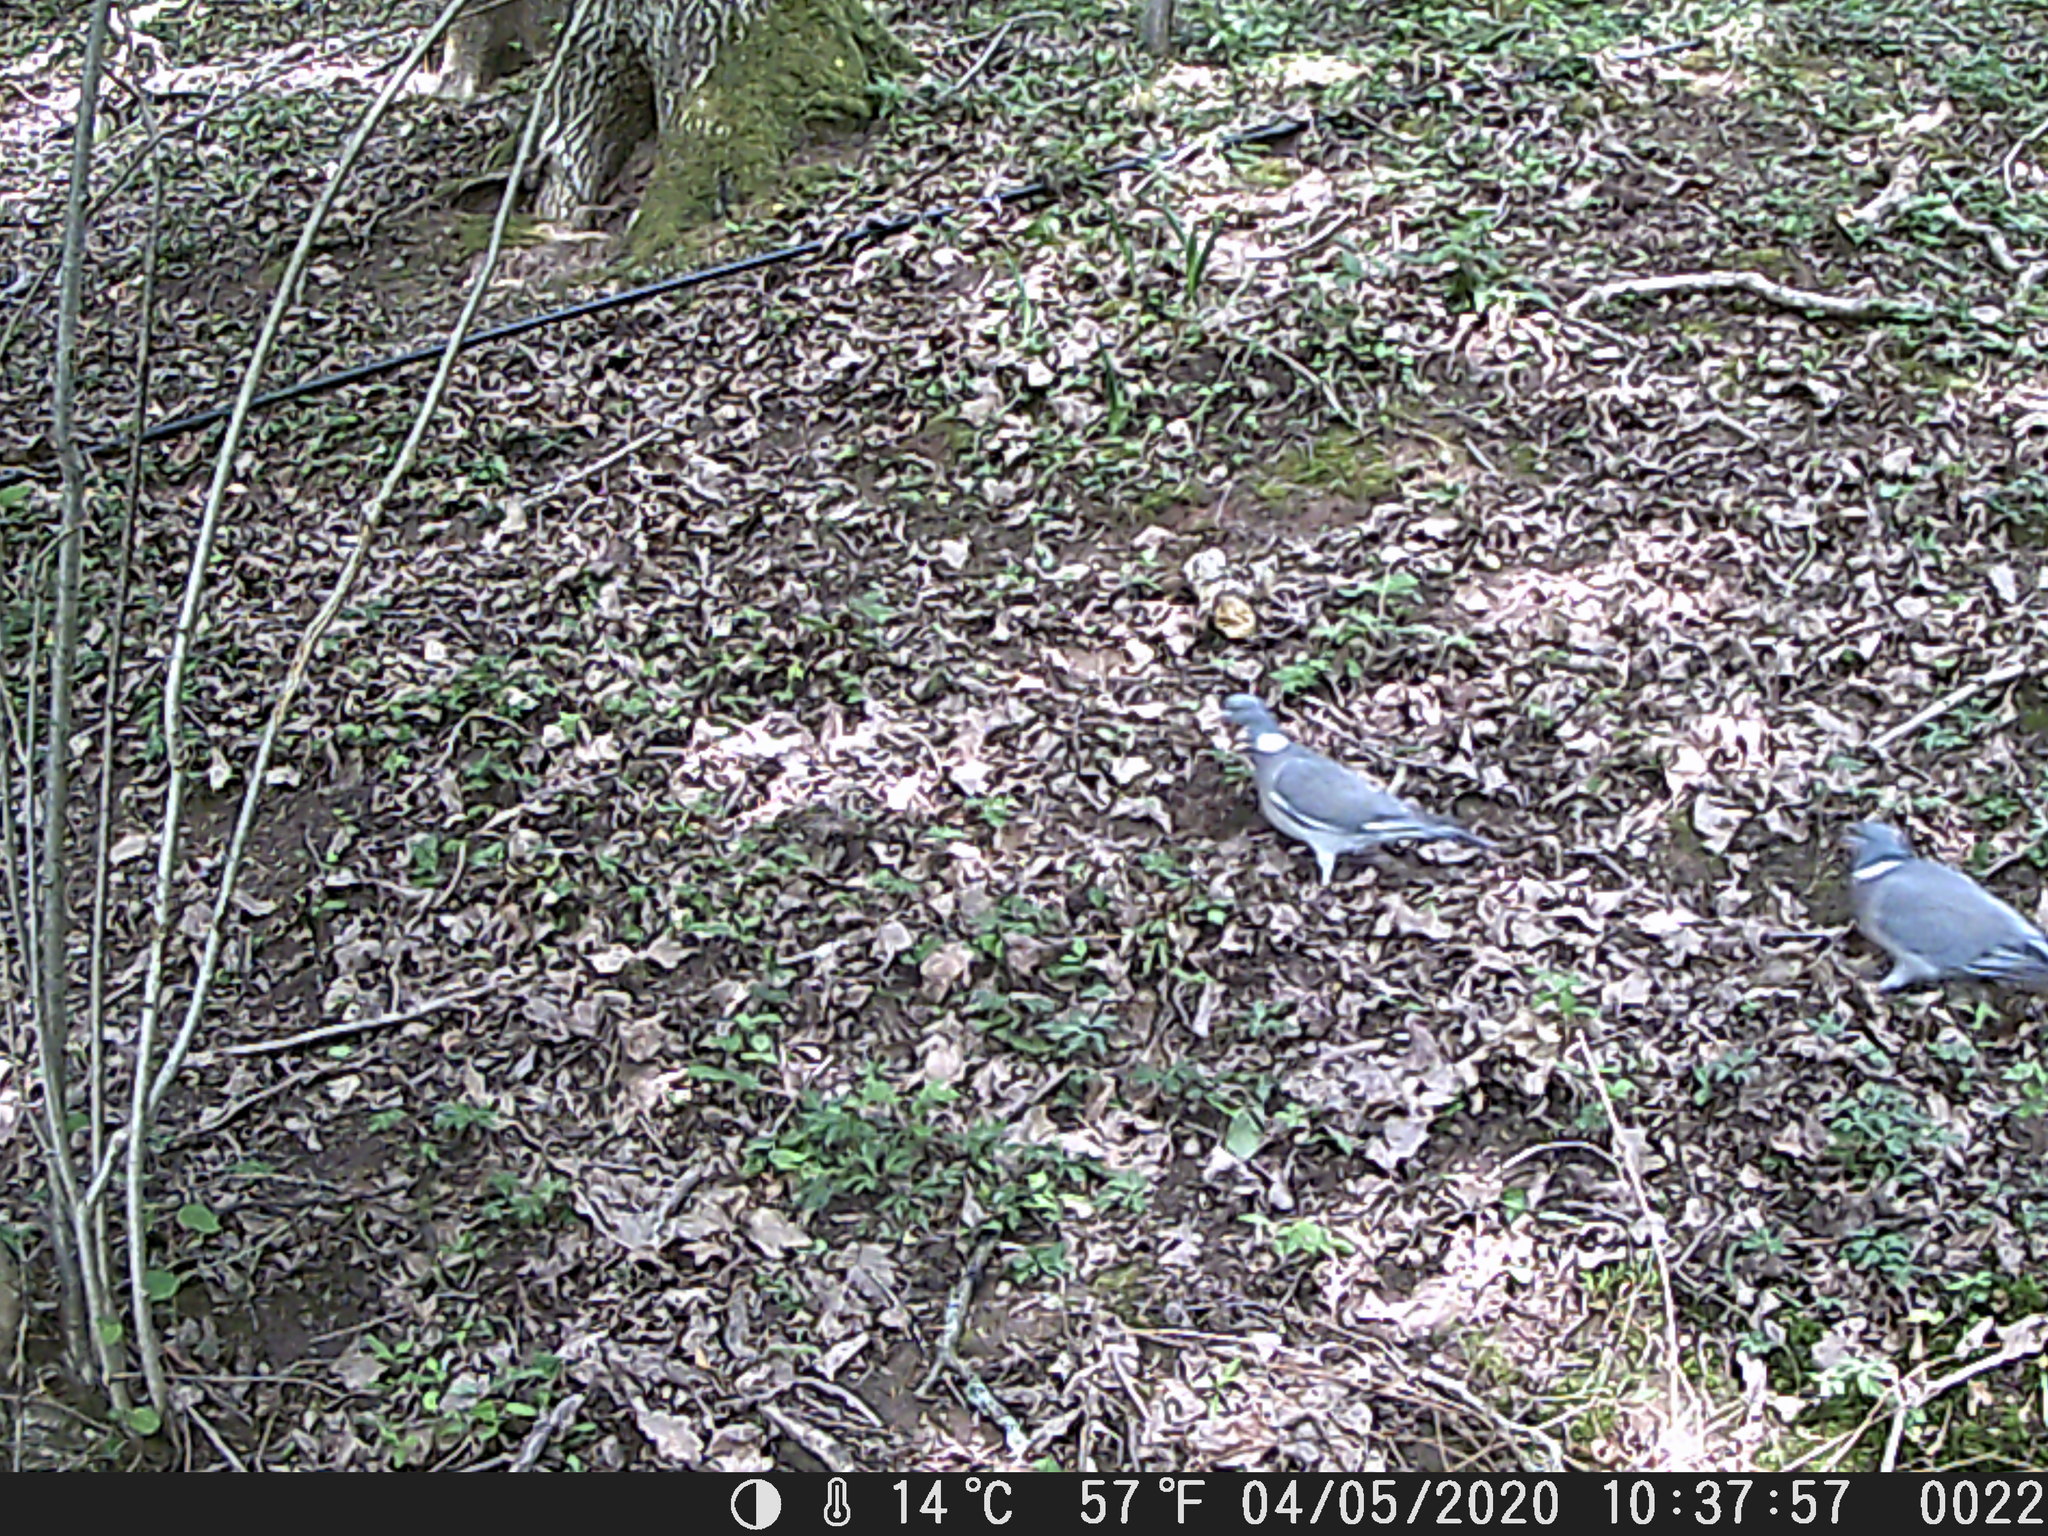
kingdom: Animalia
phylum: Chordata
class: Aves
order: Columbiformes
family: Columbidae
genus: Columba
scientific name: Columba palumbus
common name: Common wood pigeon
